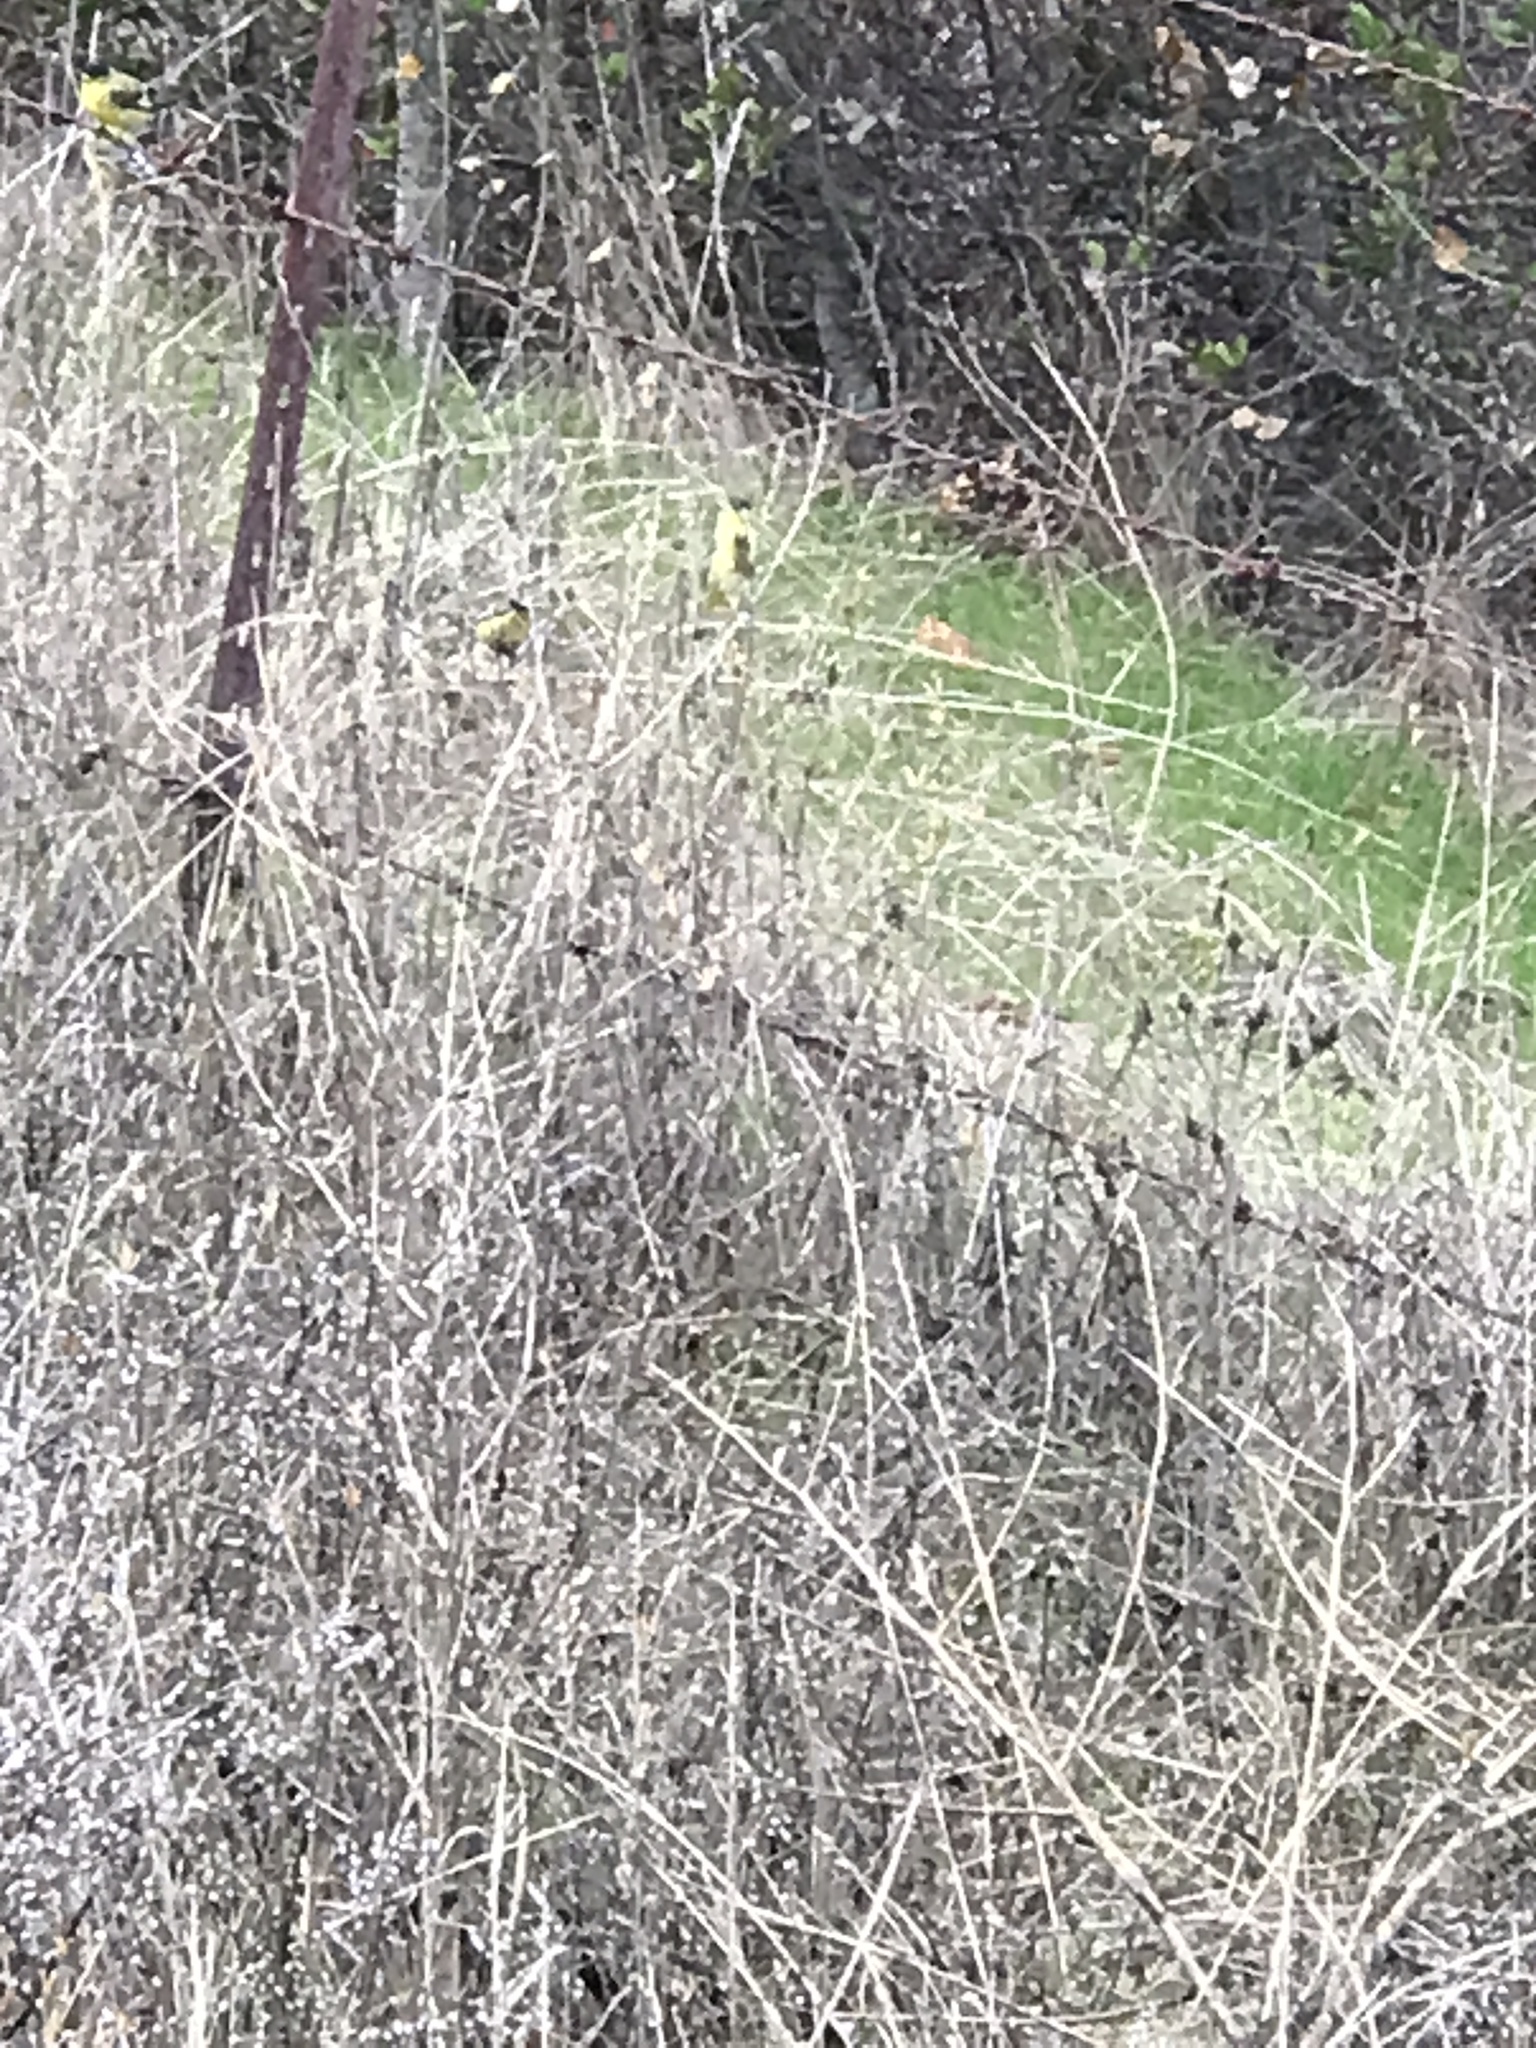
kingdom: Animalia
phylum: Chordata
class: Aves
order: Passeriformes
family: Fringillidae
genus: Spinus
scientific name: Spinus psaltria
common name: Lesser goldfinch
